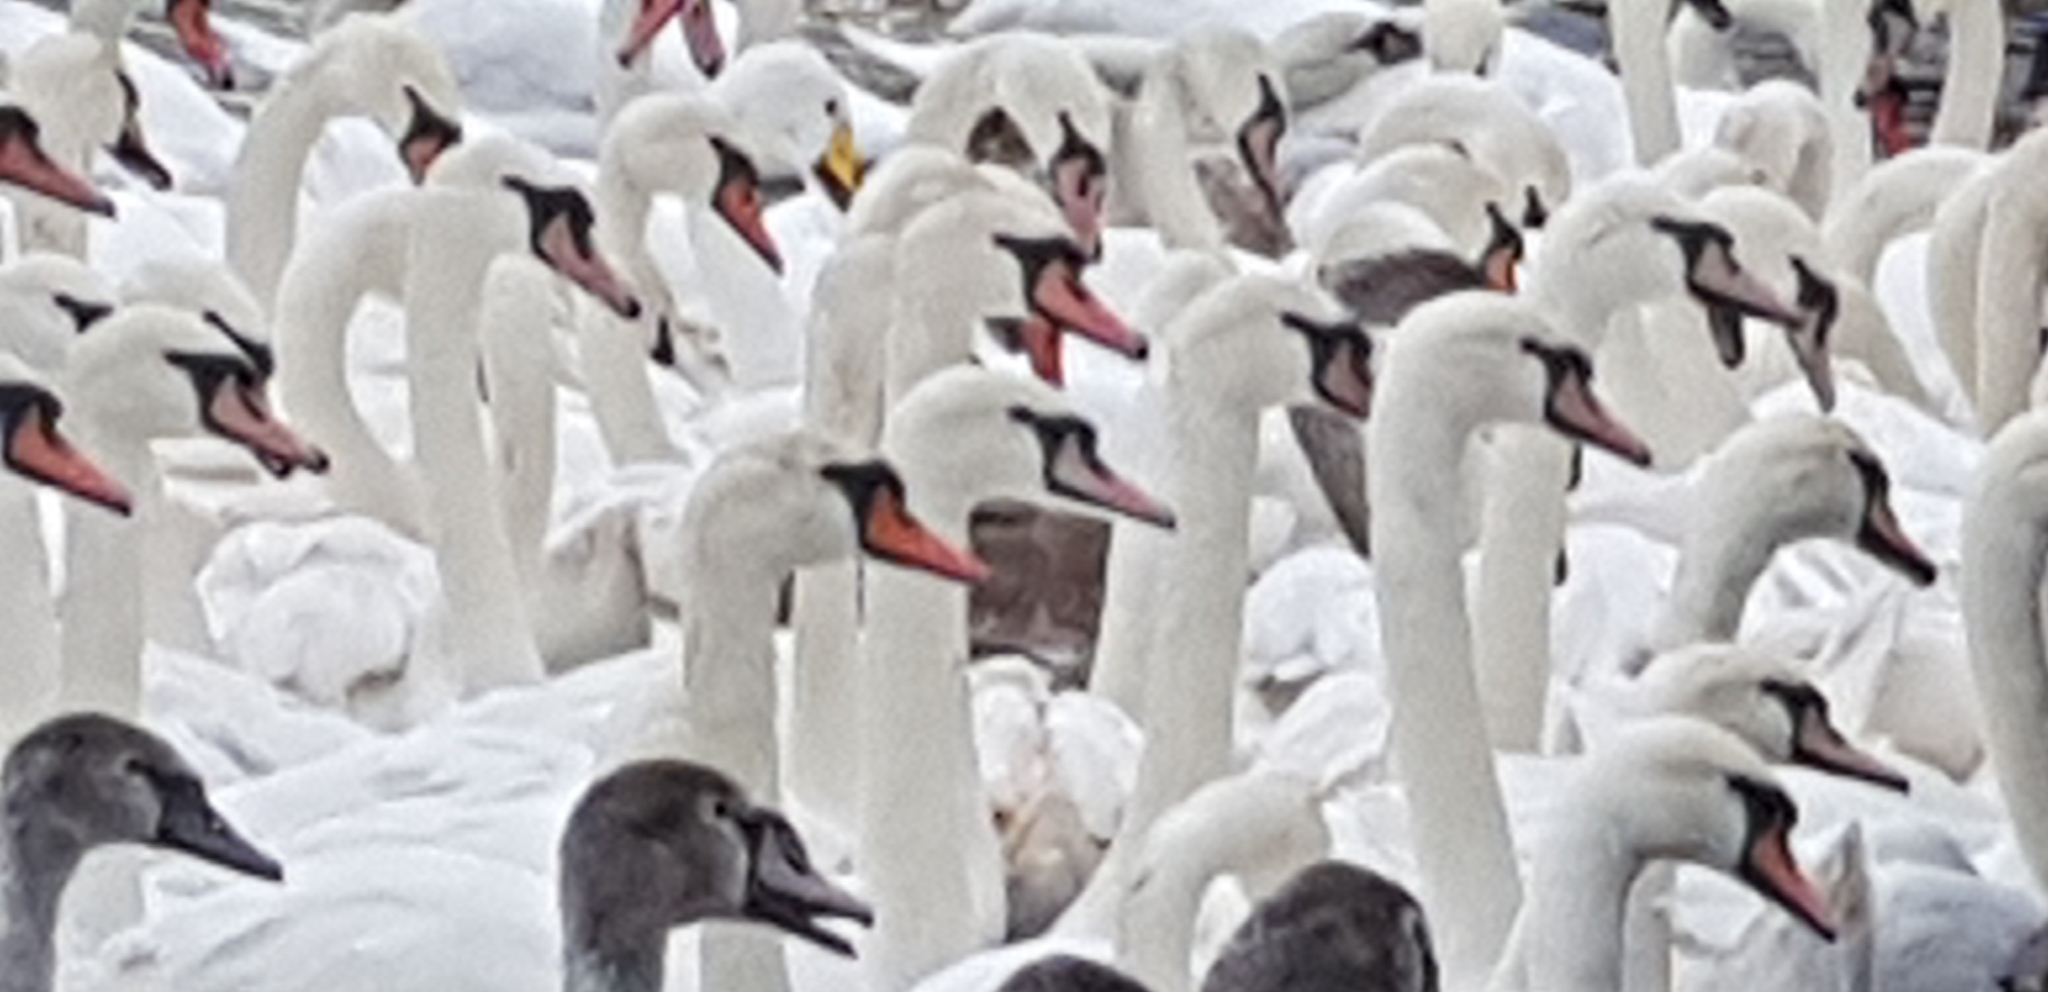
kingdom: Animalia
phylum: Chordata
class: Aves
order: Anseriformes
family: Anatidae
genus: Cygnus
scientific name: Cygnus cygnus
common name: Whooper swan
